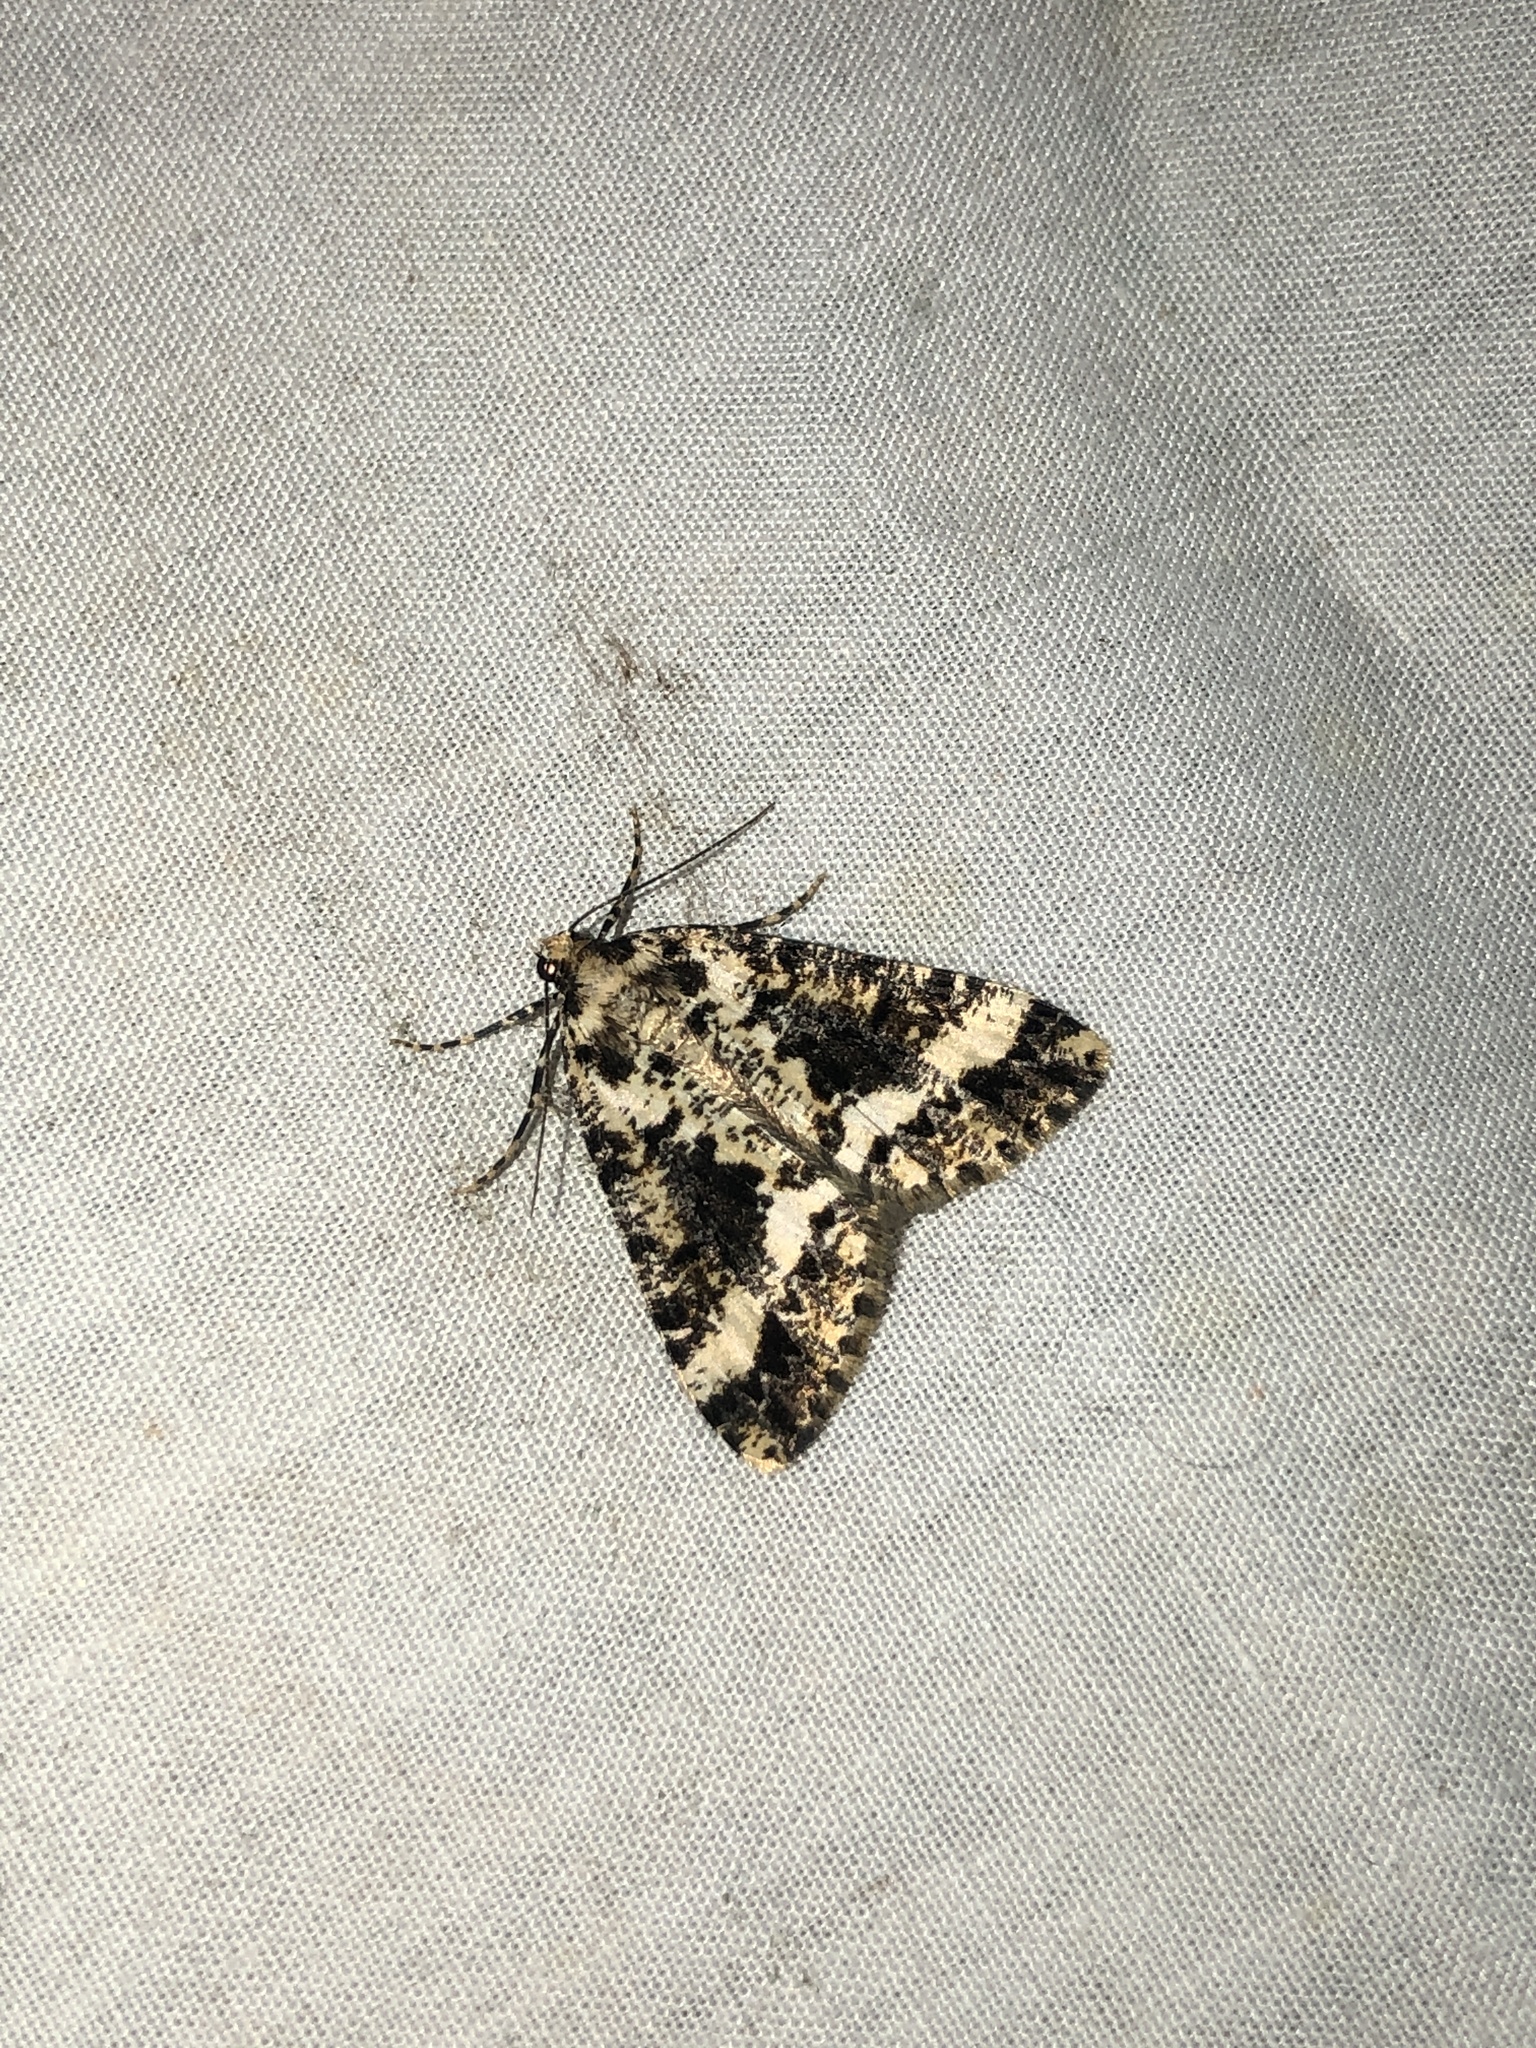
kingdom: Animalia
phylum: Arthropoda
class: Insecta
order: Lepidoptera
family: Geometridae
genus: Pseudocoremia
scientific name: Pseudocoremia leucelaea
